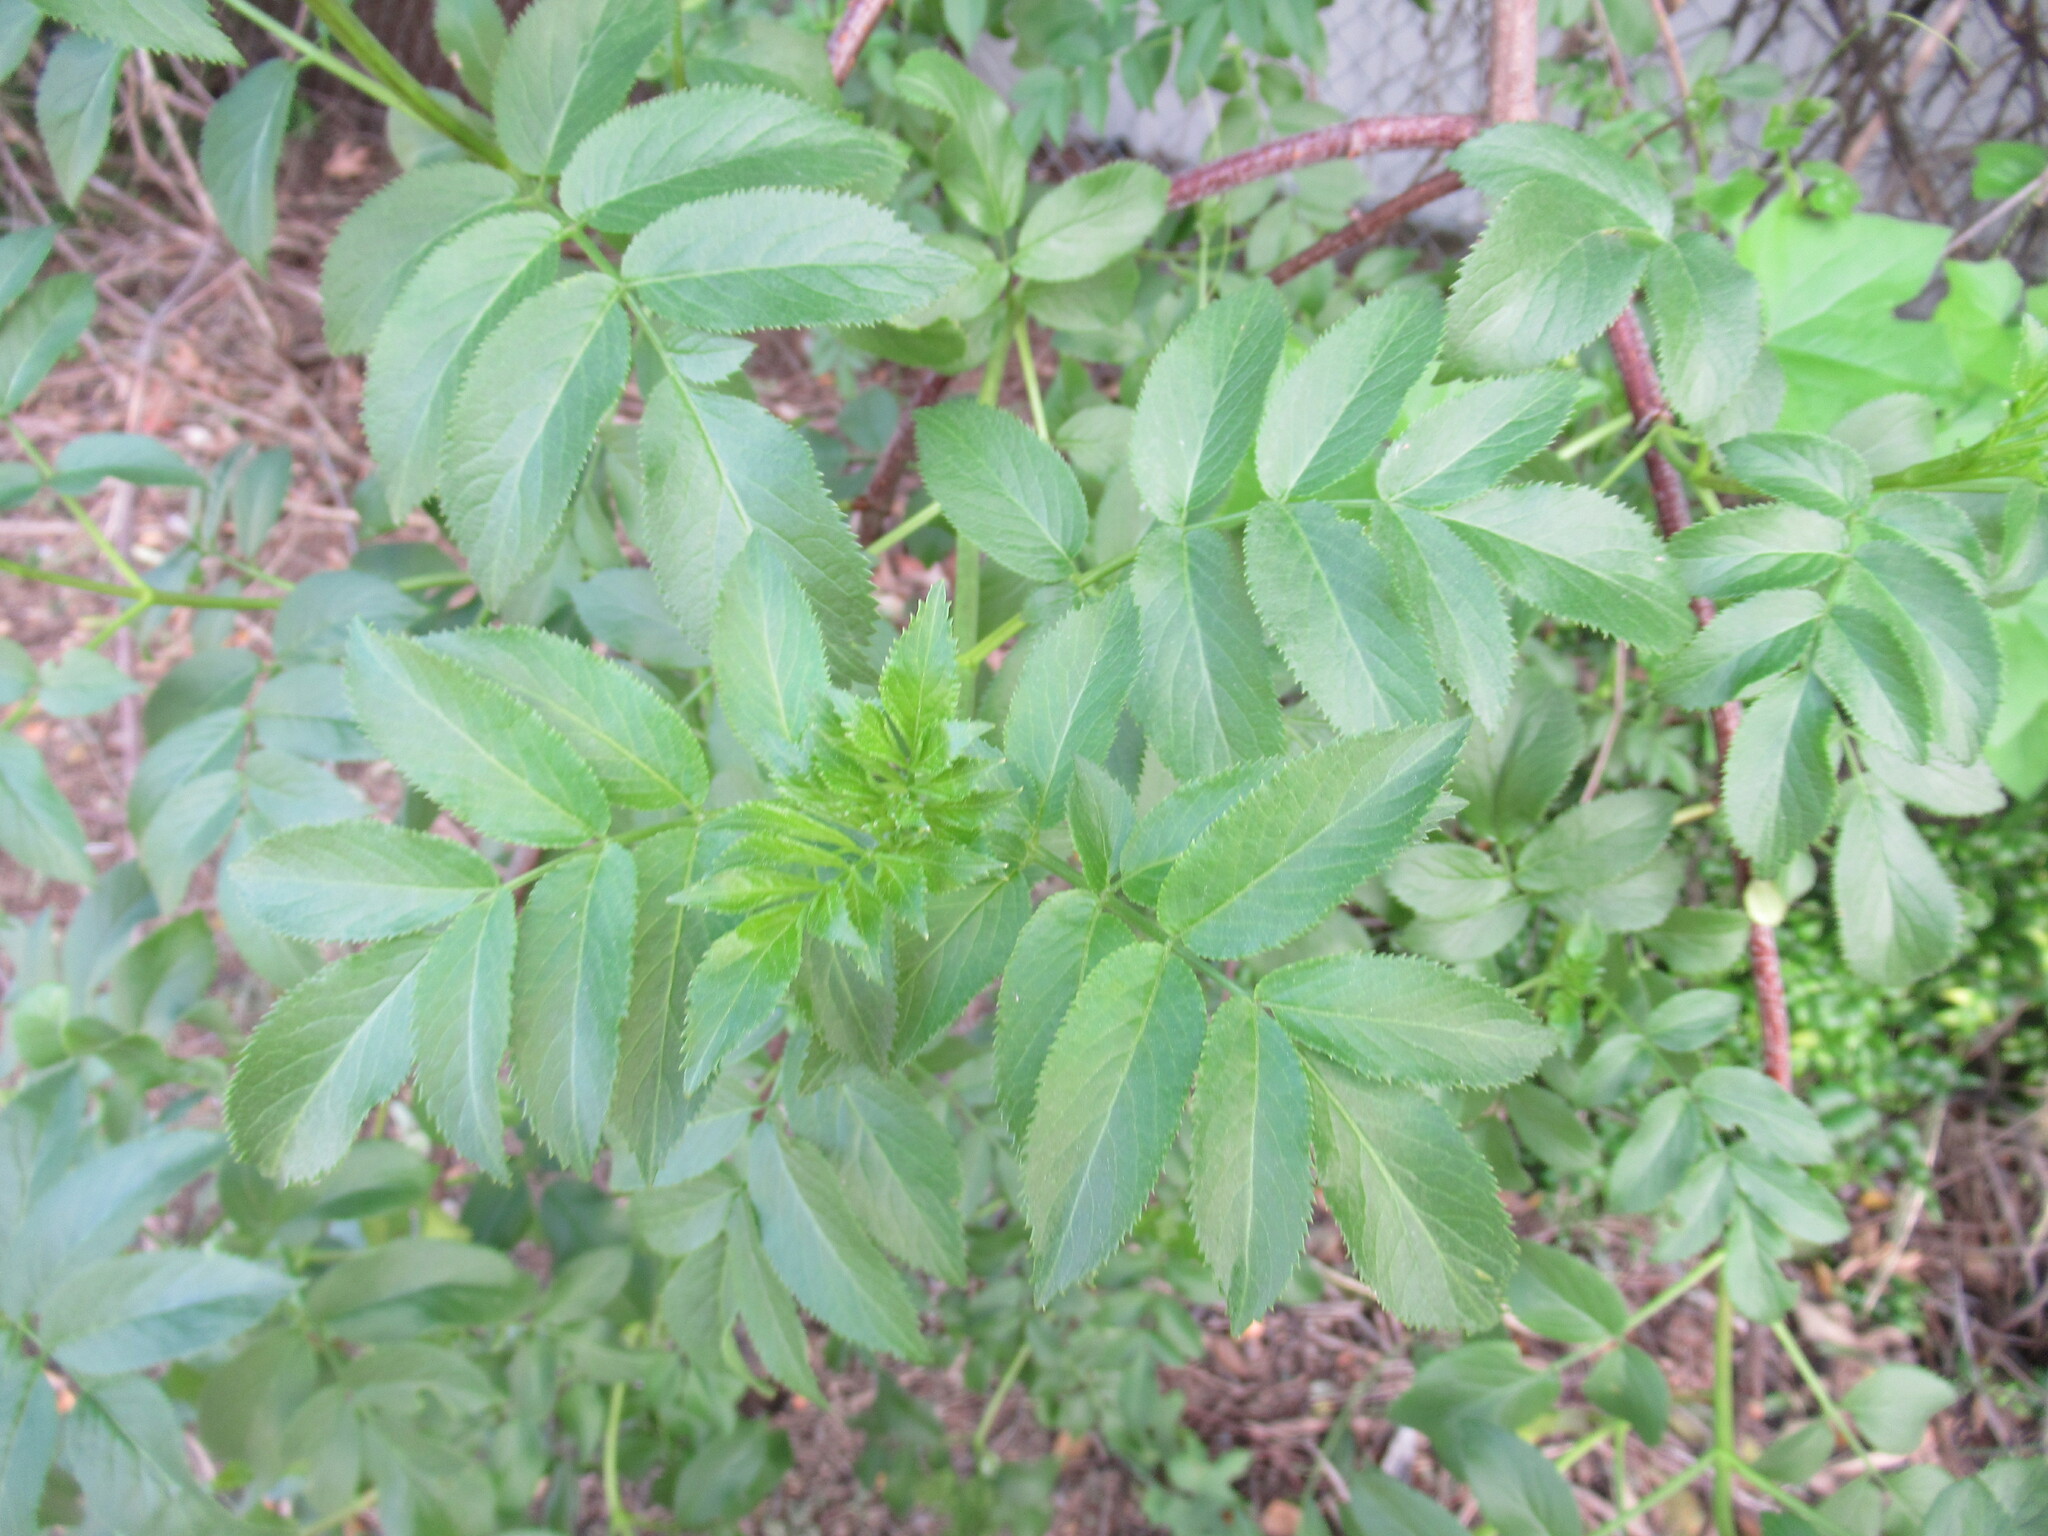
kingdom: Plantae
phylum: Tracheophyta
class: Magnoliopsida
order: Dipsacales
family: Viburnaceae
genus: Sambucus
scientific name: Sambucus cerulea
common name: Blue elder
